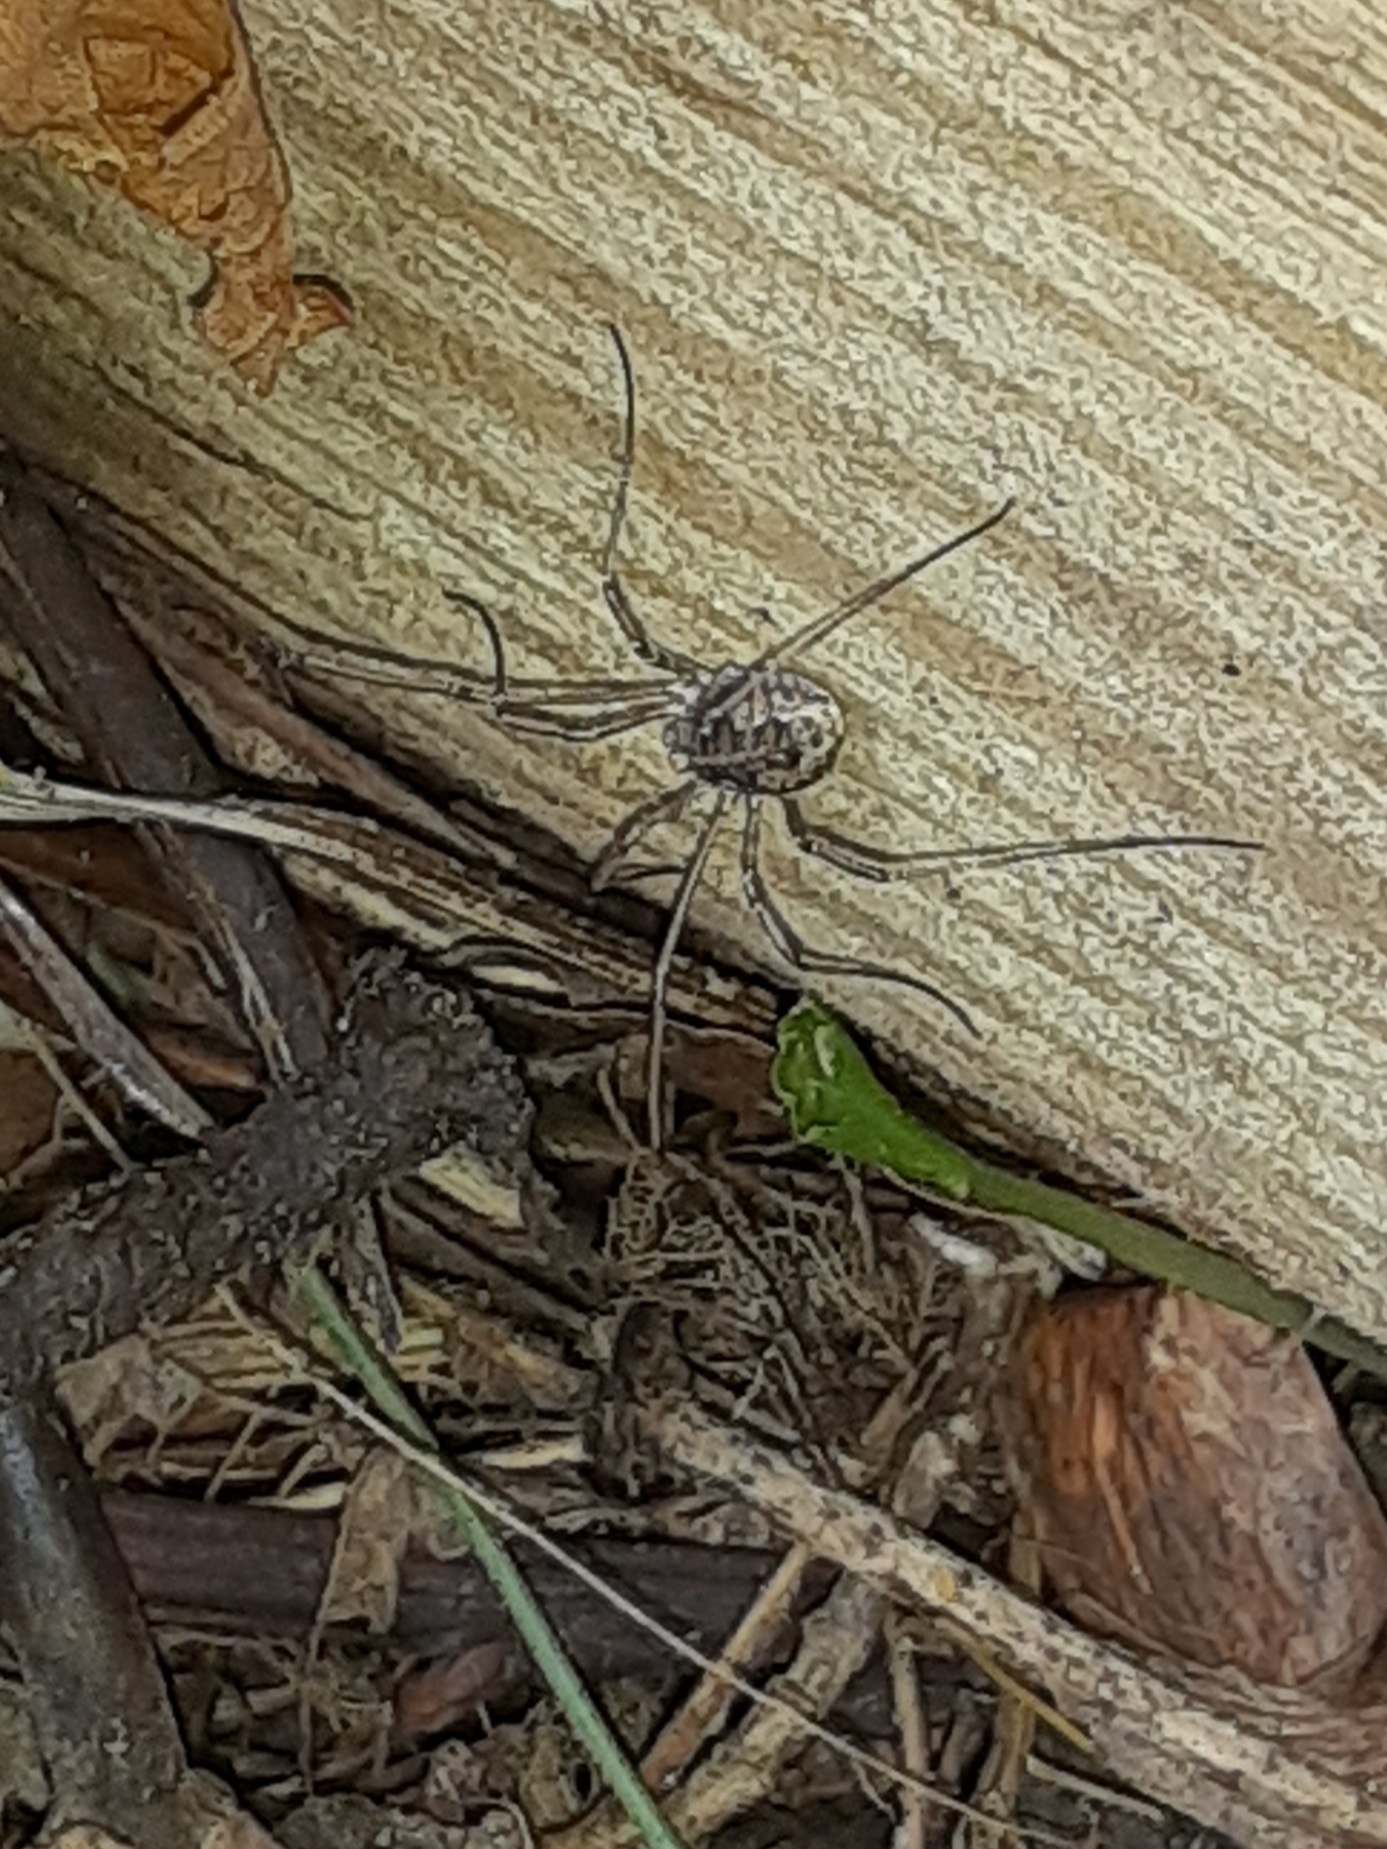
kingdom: Animalia
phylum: Arthropoda
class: Arachnida
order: Opiliones
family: Phalangiidae
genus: Phalangium
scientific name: Phalangium opilio
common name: Daddy longleg
